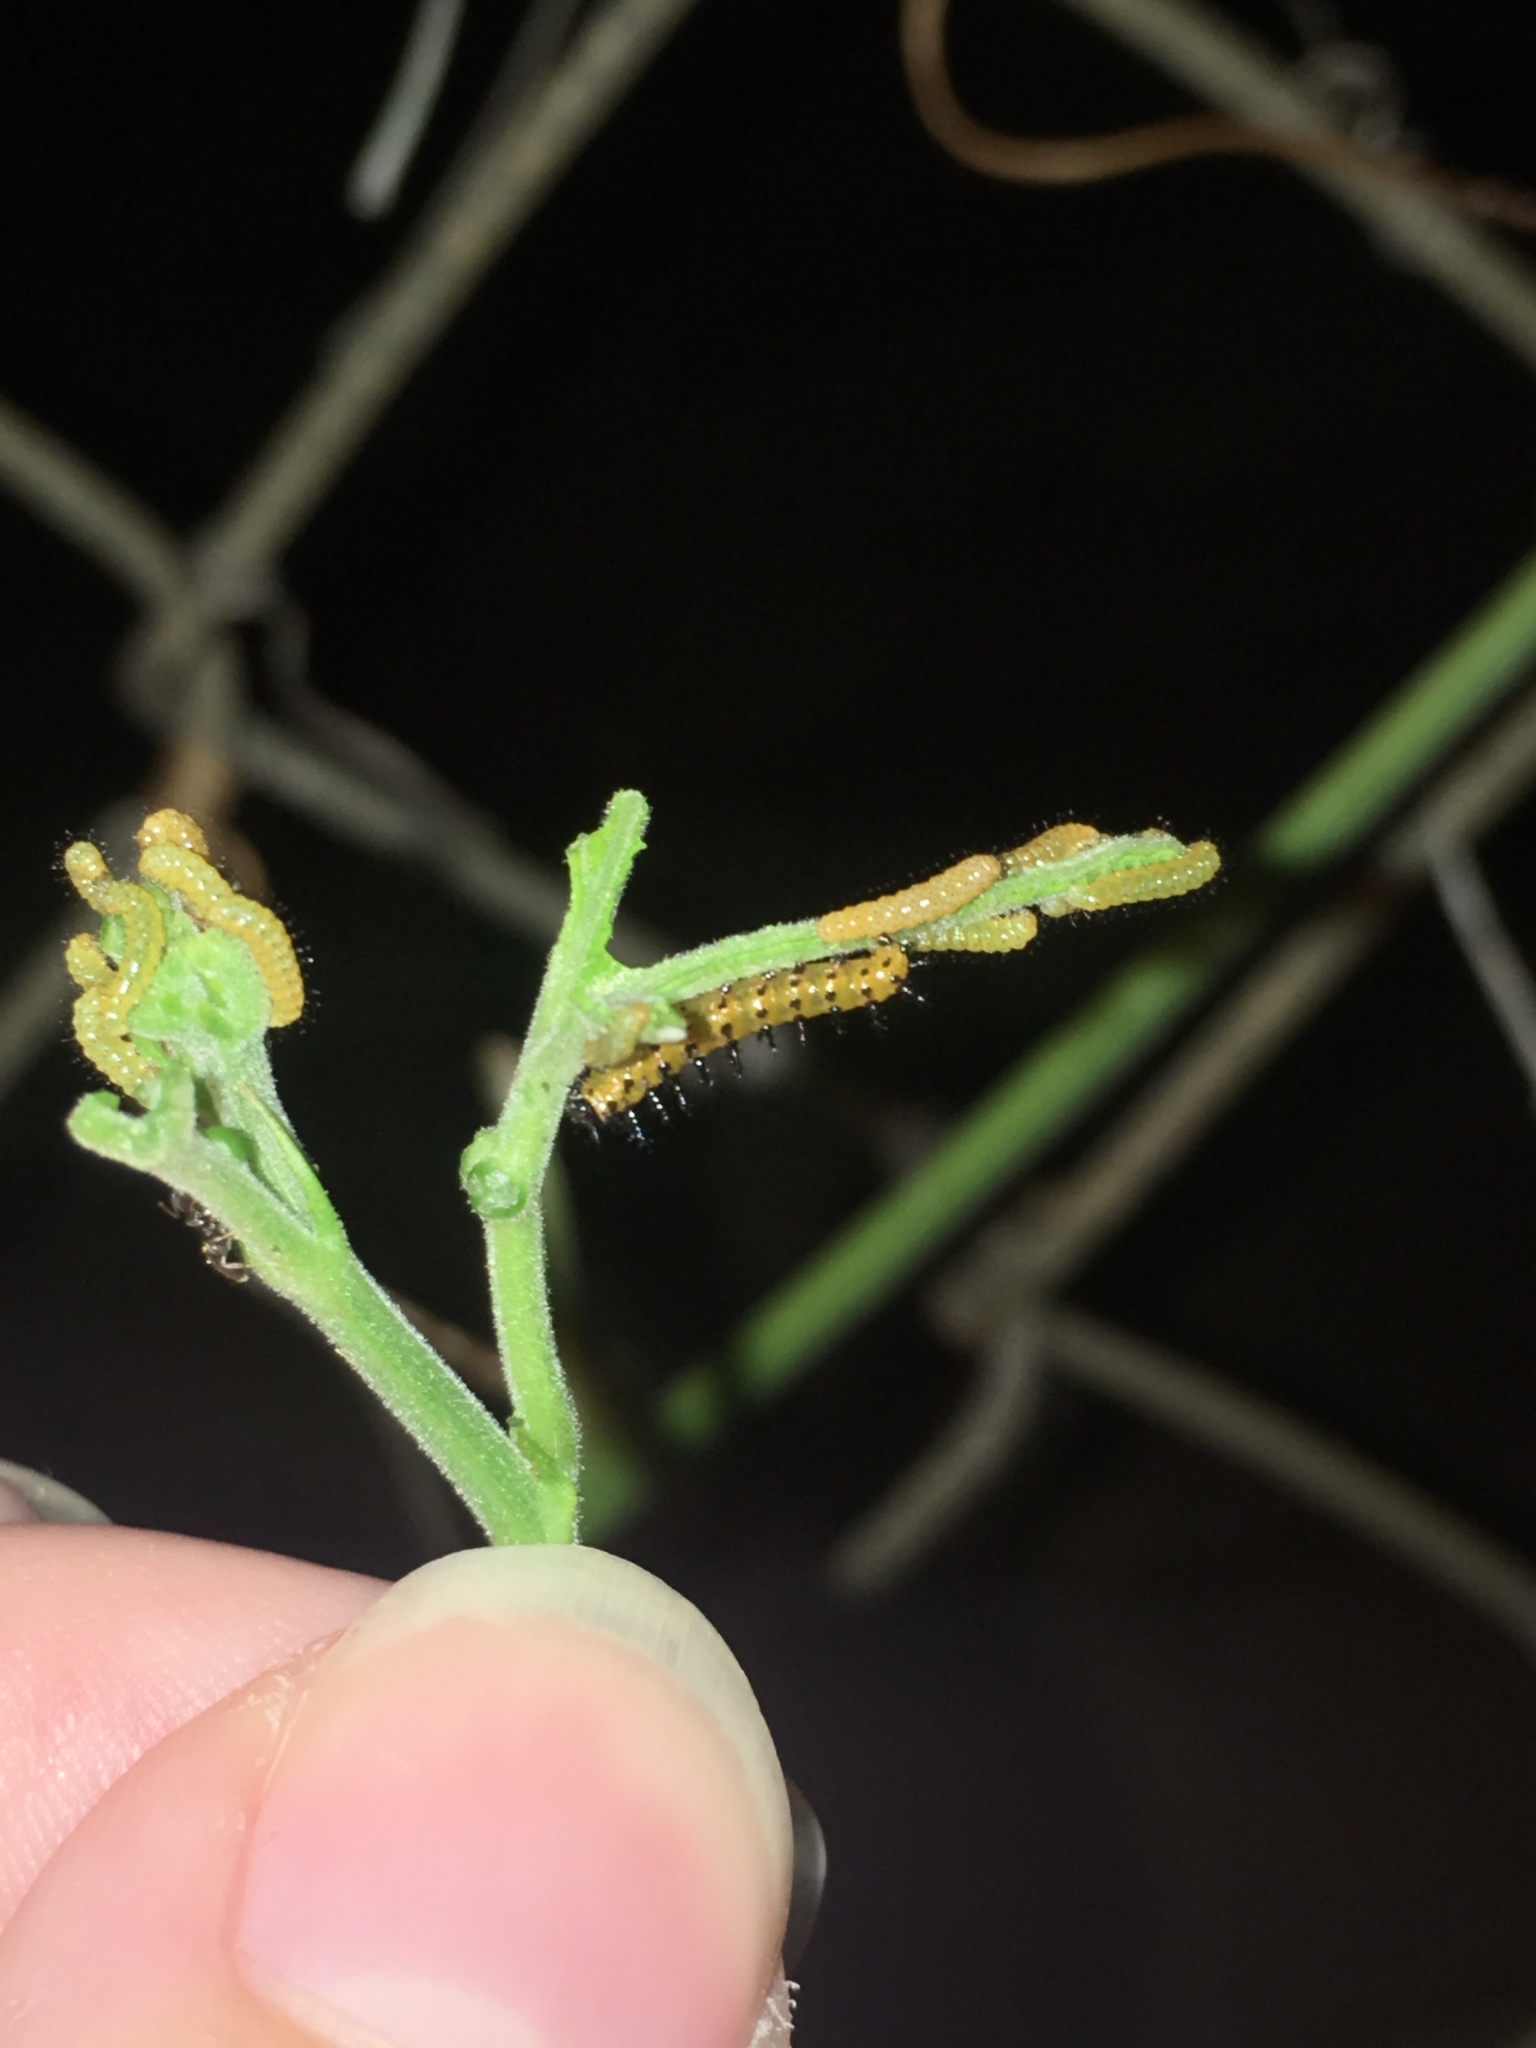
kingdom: Animalia
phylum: Arthropoda
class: Insecta
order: Lepidoptera
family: Nymphalidae
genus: Dione
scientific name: Dione vanillae
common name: Gulf fritillary
